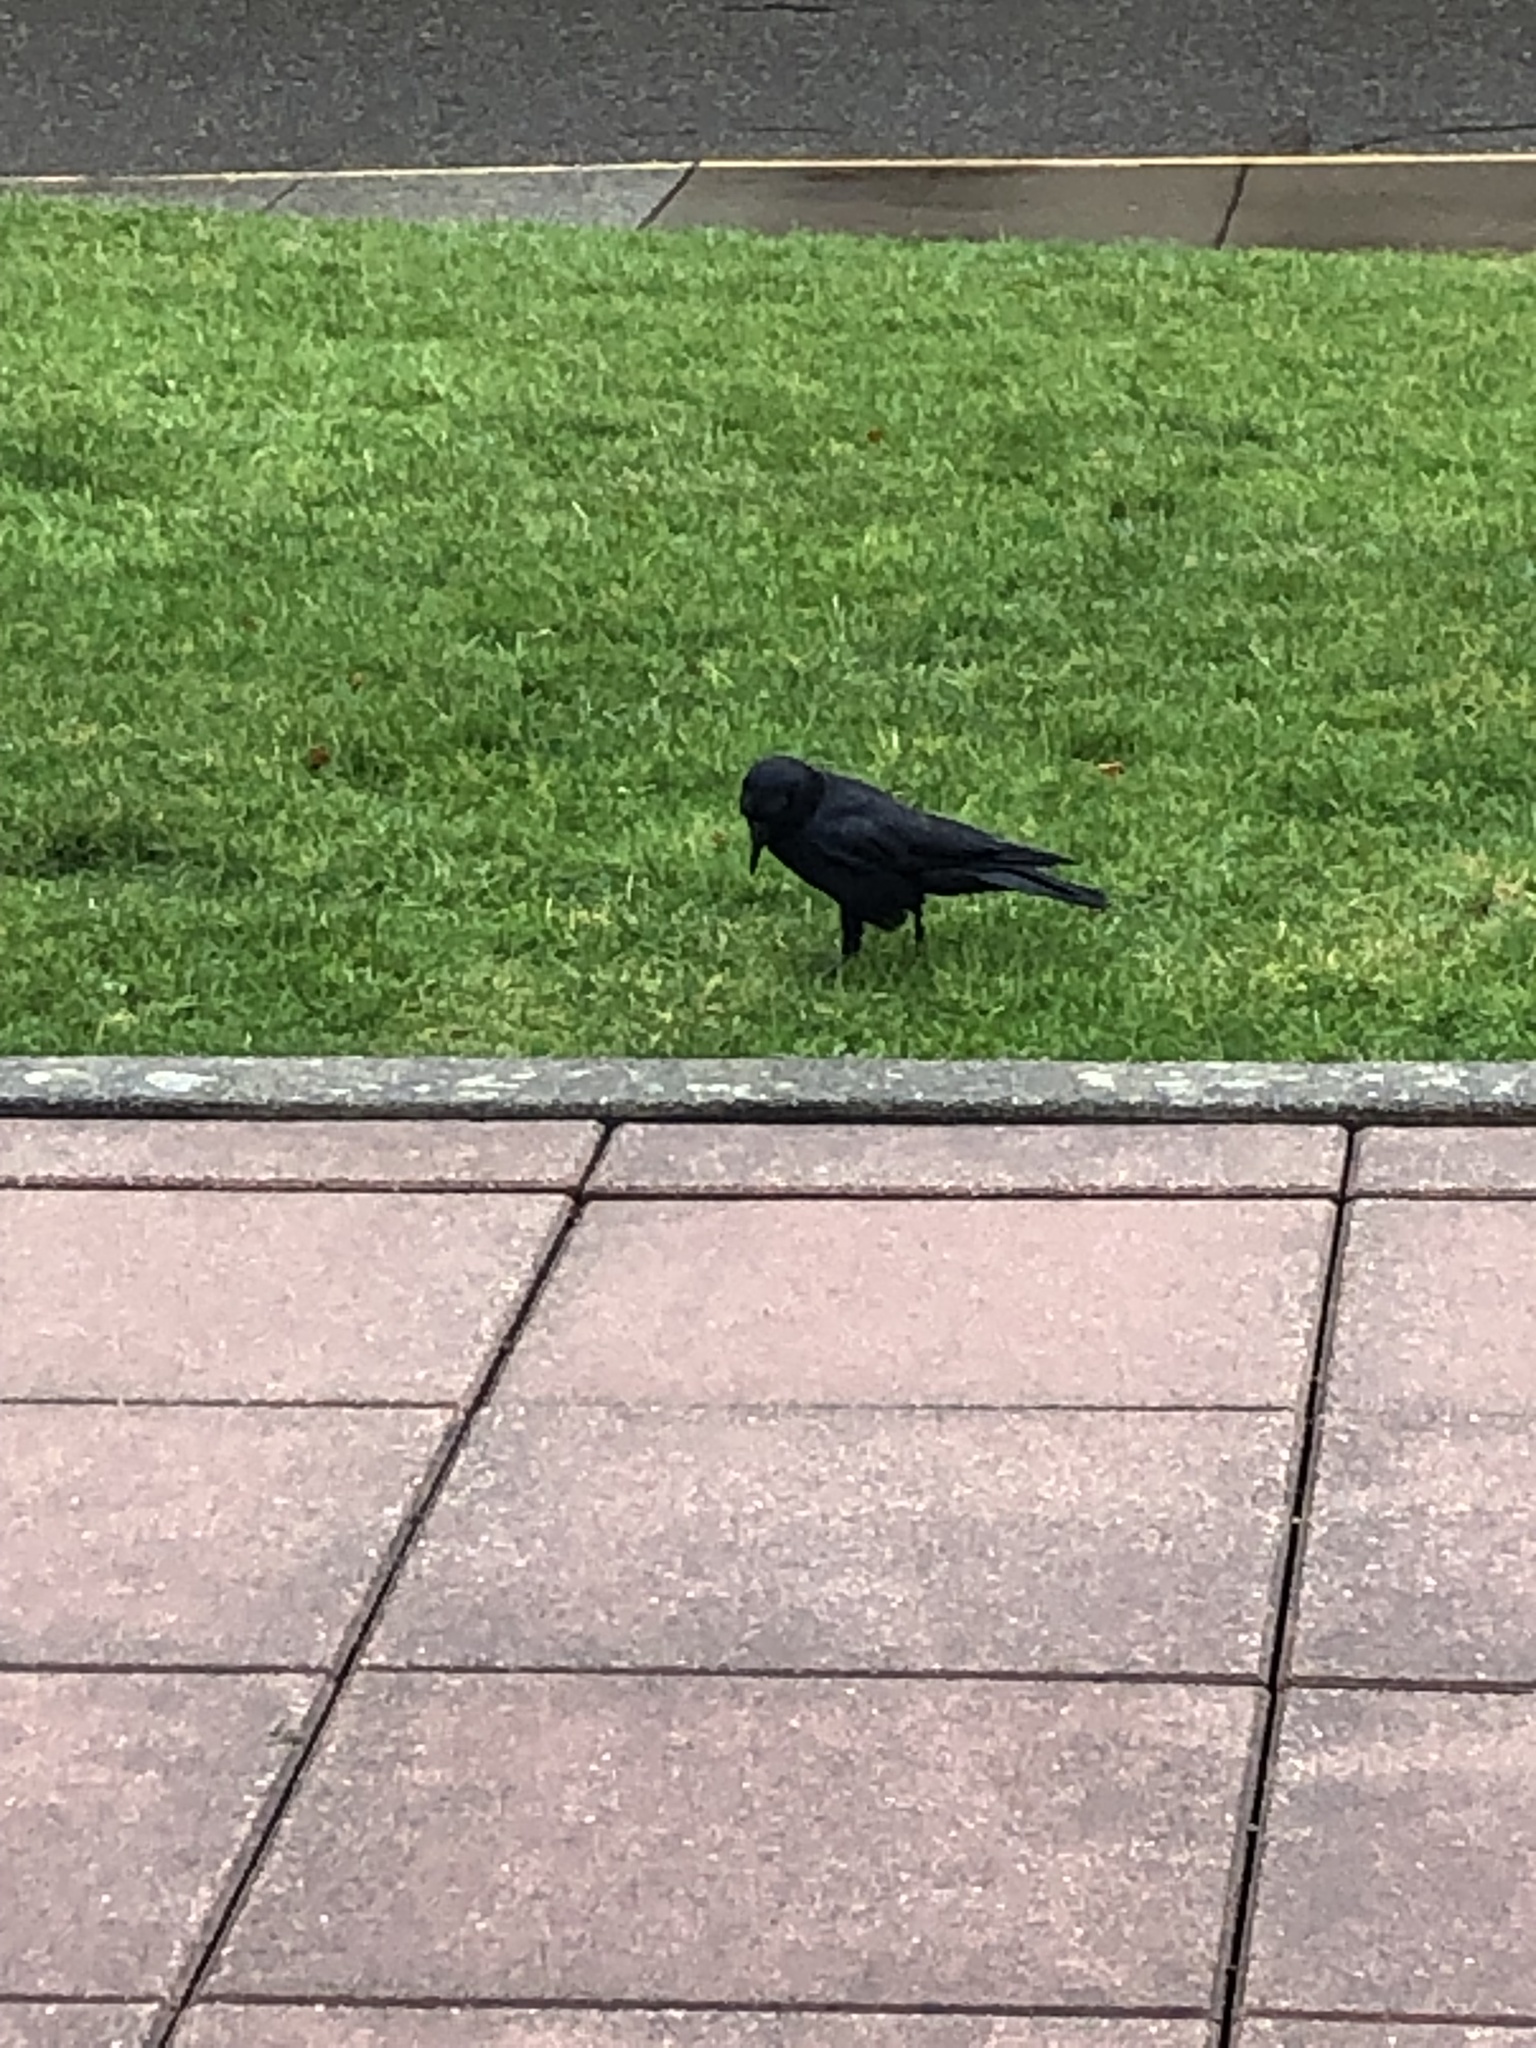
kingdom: Animalia
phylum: Chordata
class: Aves
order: Passeriformes
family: Corvidae
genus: Corvus
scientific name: Corvus brachyrhynchos
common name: American crow
